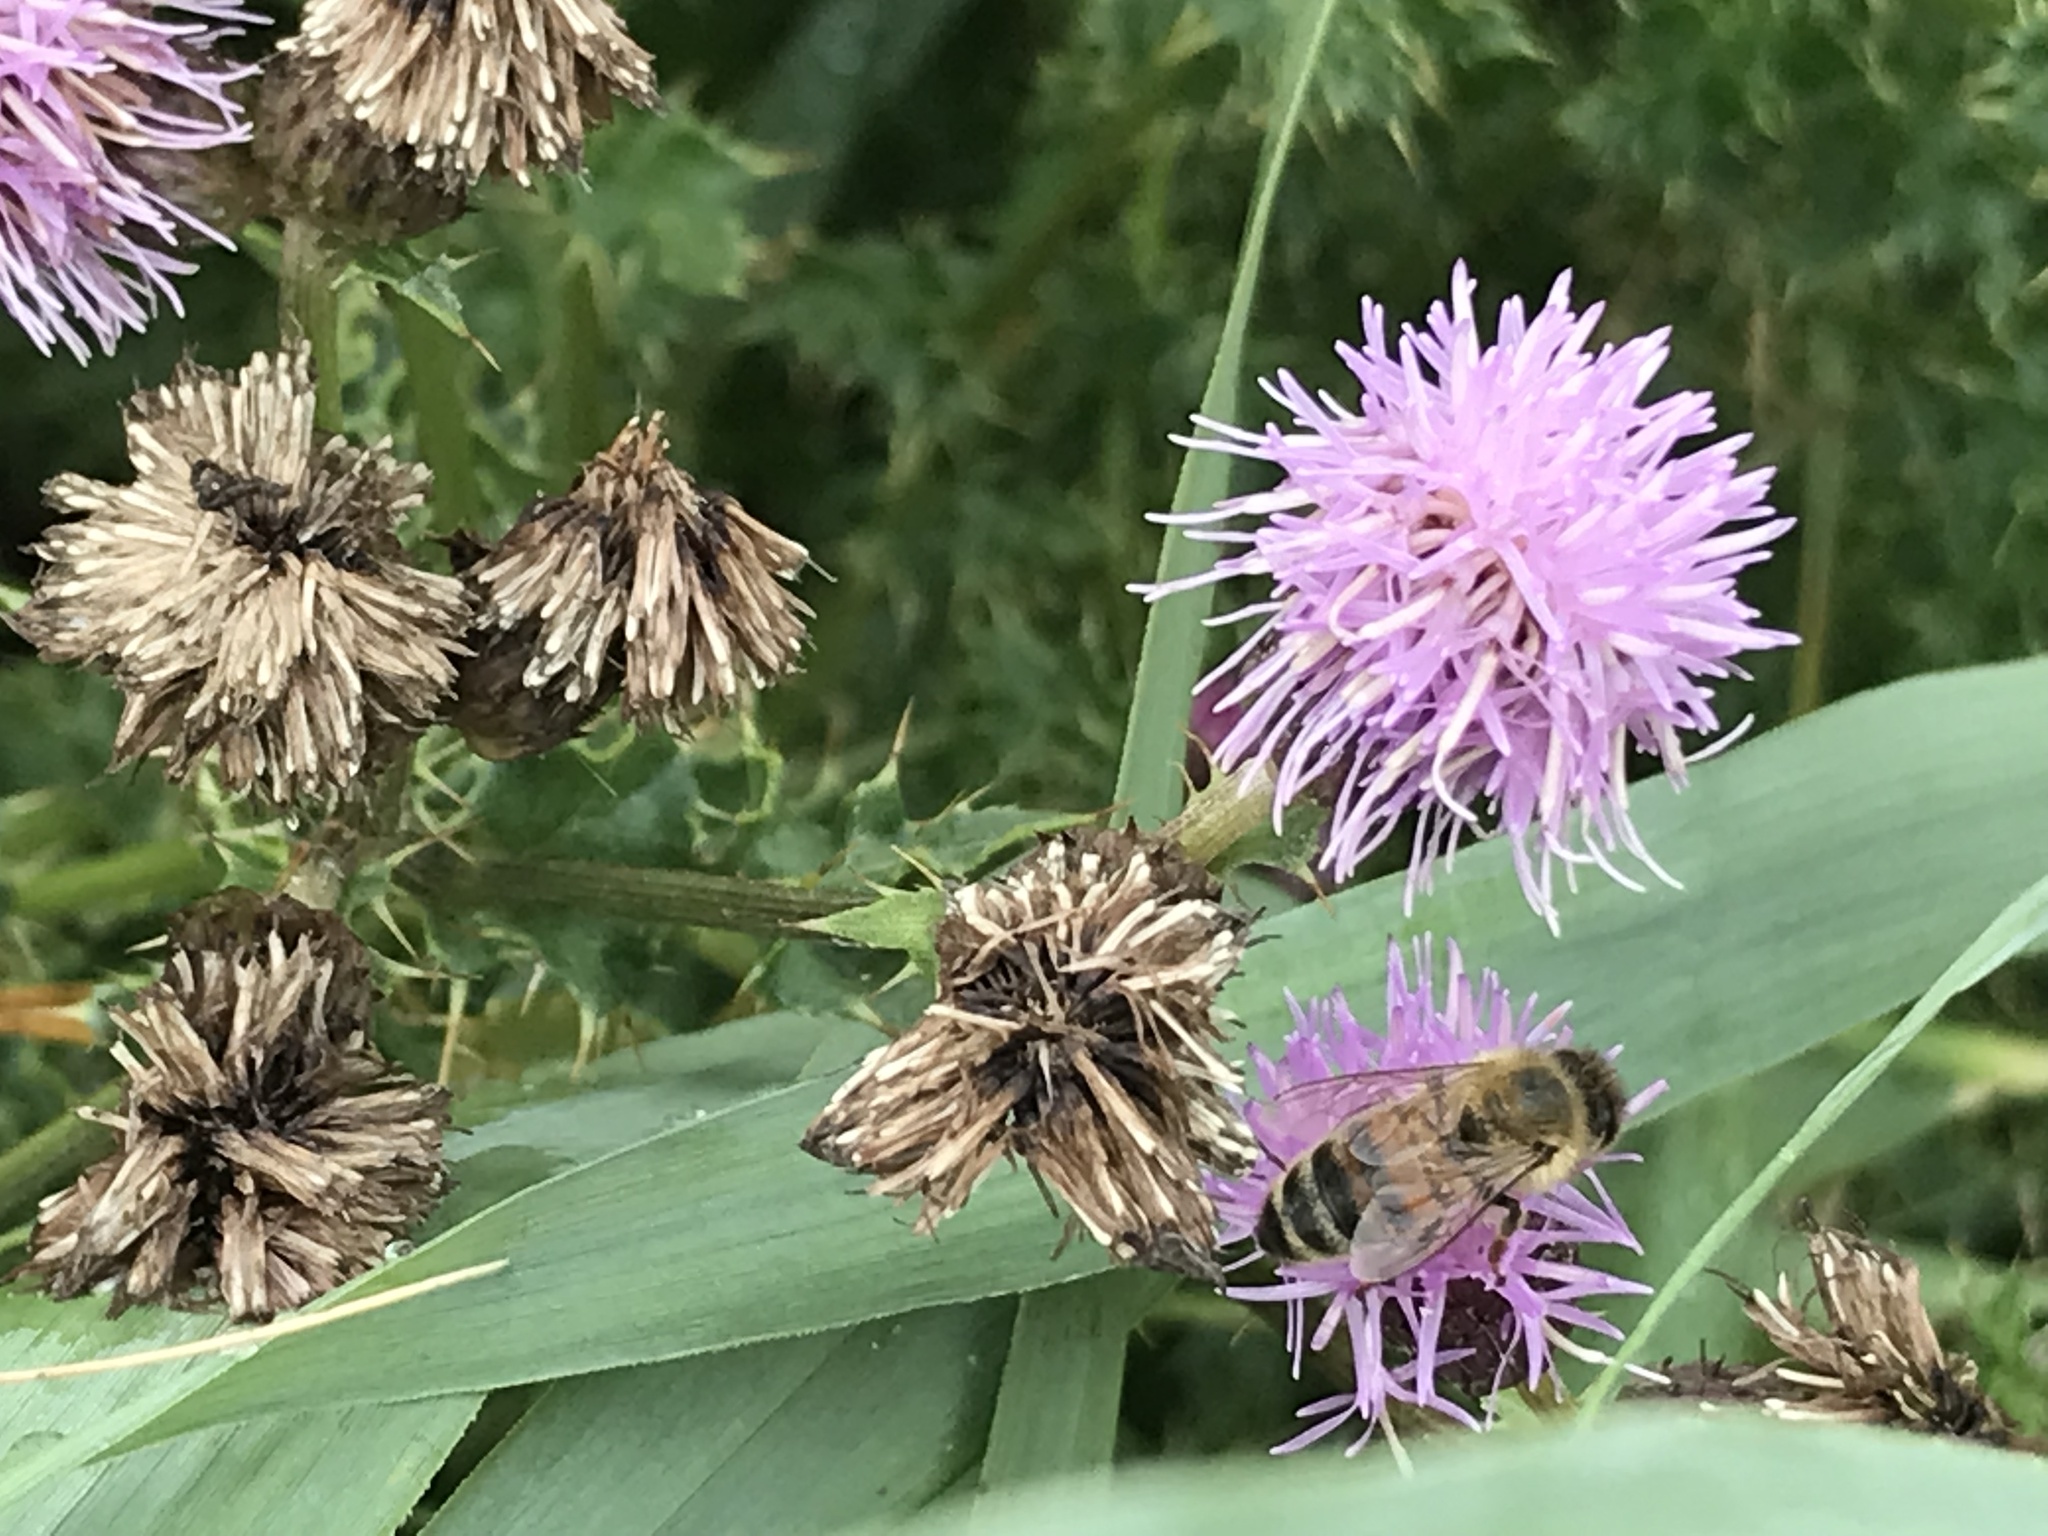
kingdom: Animalia
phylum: Arthropoda
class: Insecta
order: Hymenoptera
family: Apidae
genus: Apis
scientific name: Apis mellifera
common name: Honey bee
